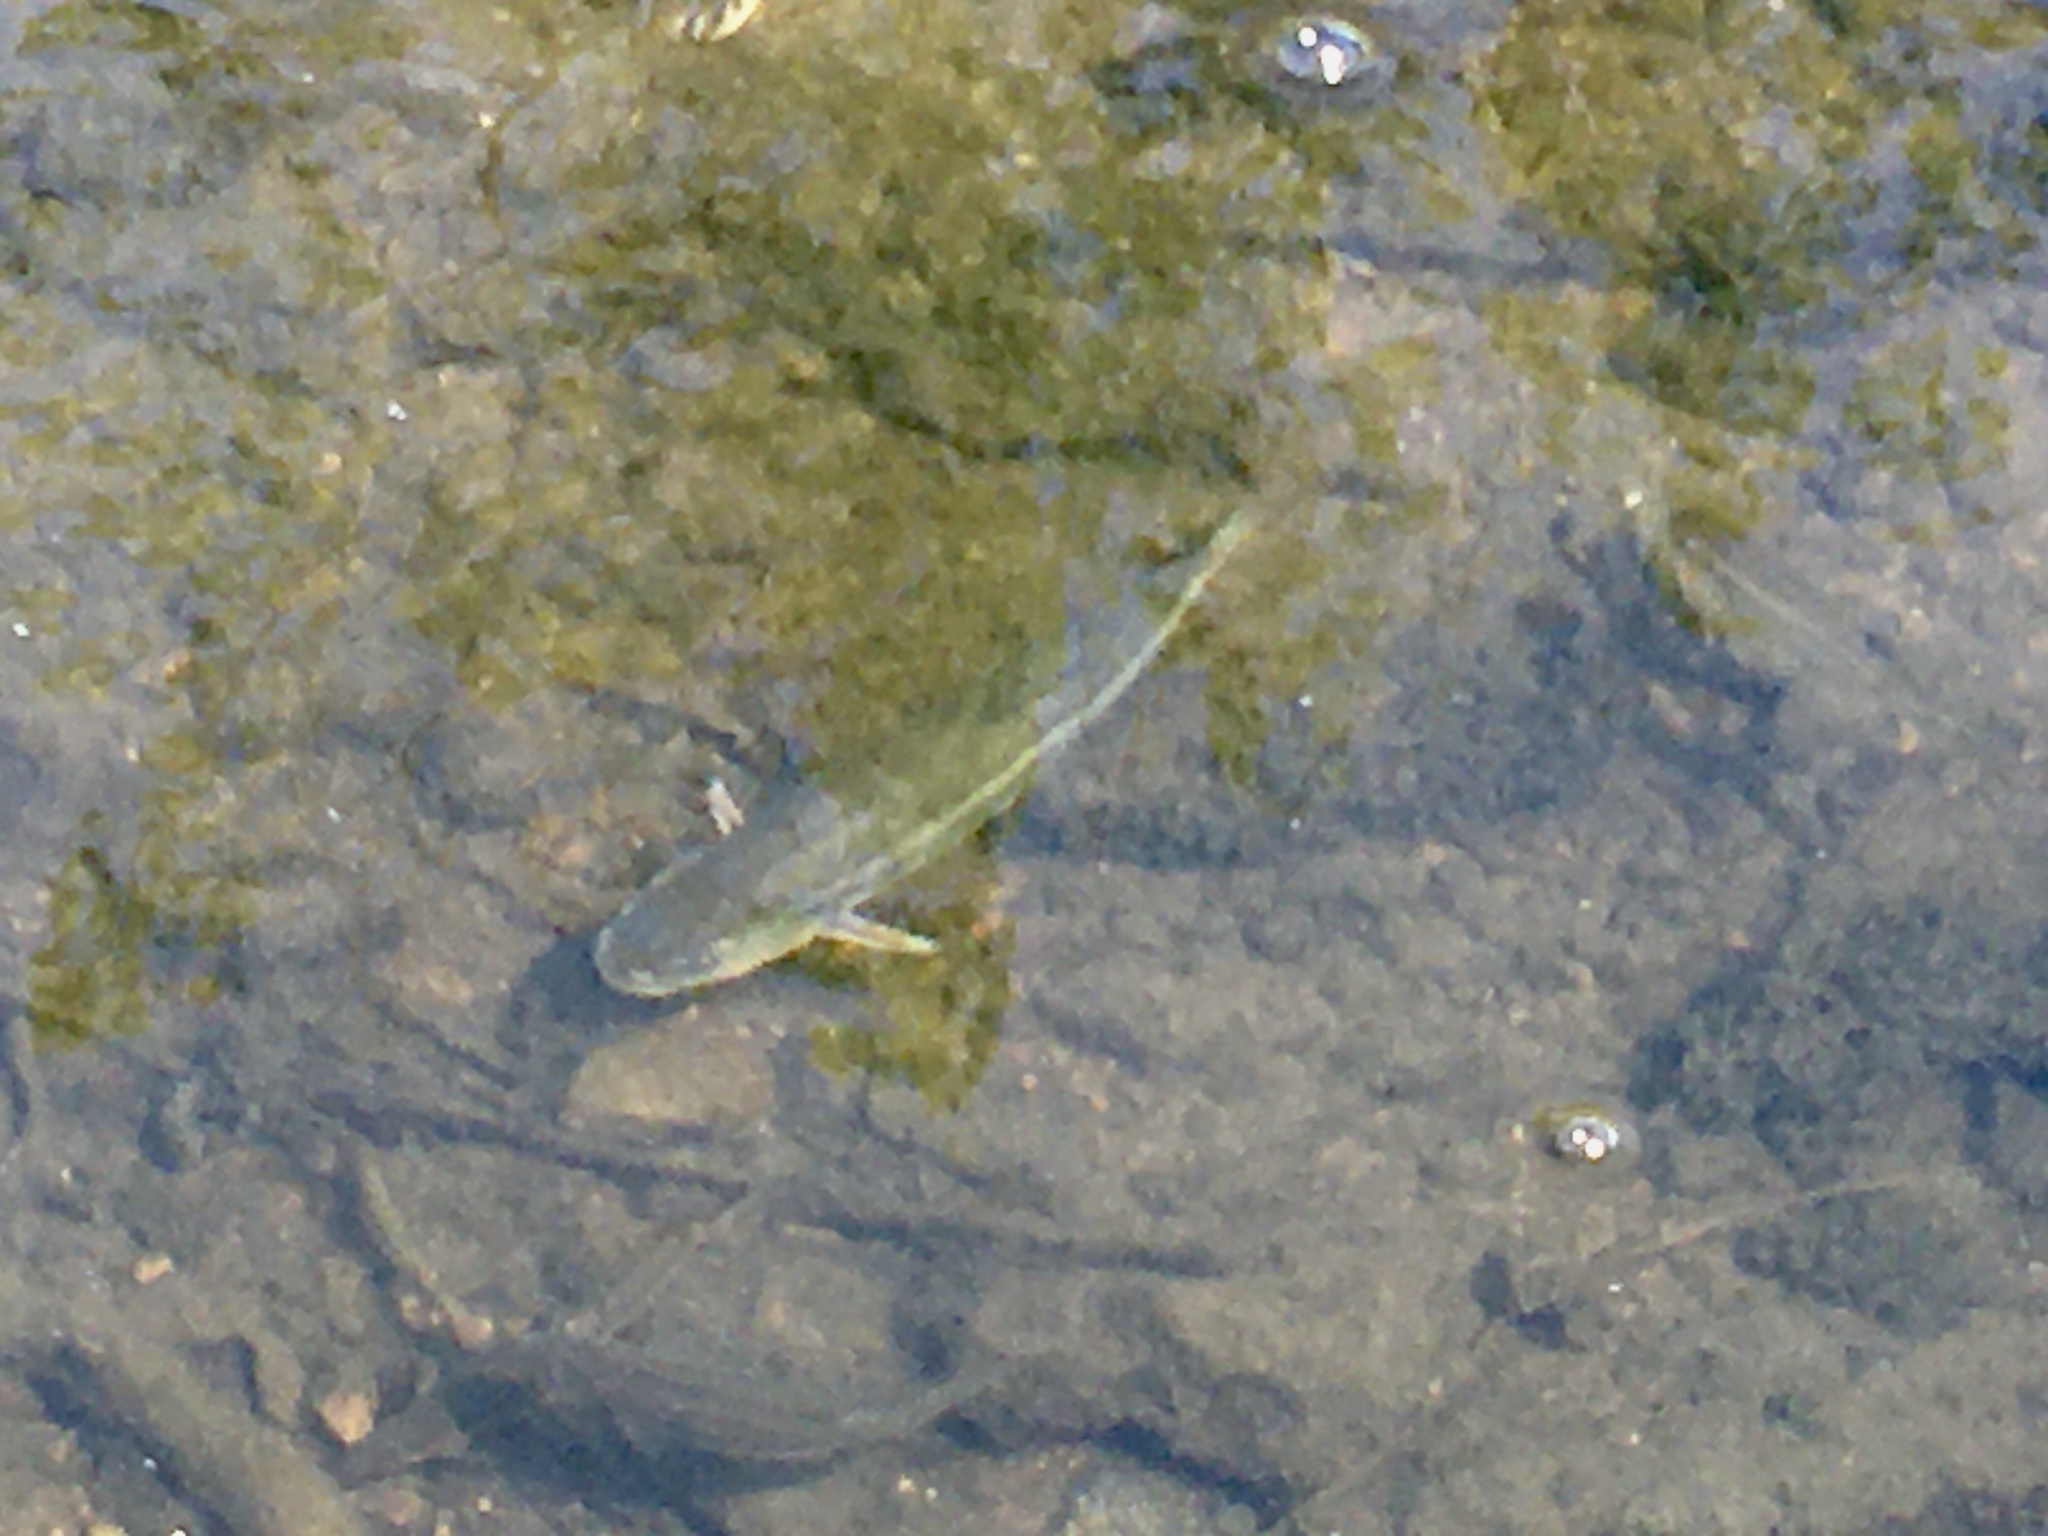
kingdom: Animalia
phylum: Chordata
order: Cypriniformes
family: Cyprinidae
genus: Semotilus
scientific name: Semotilus atromaculatus
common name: Creek chub
